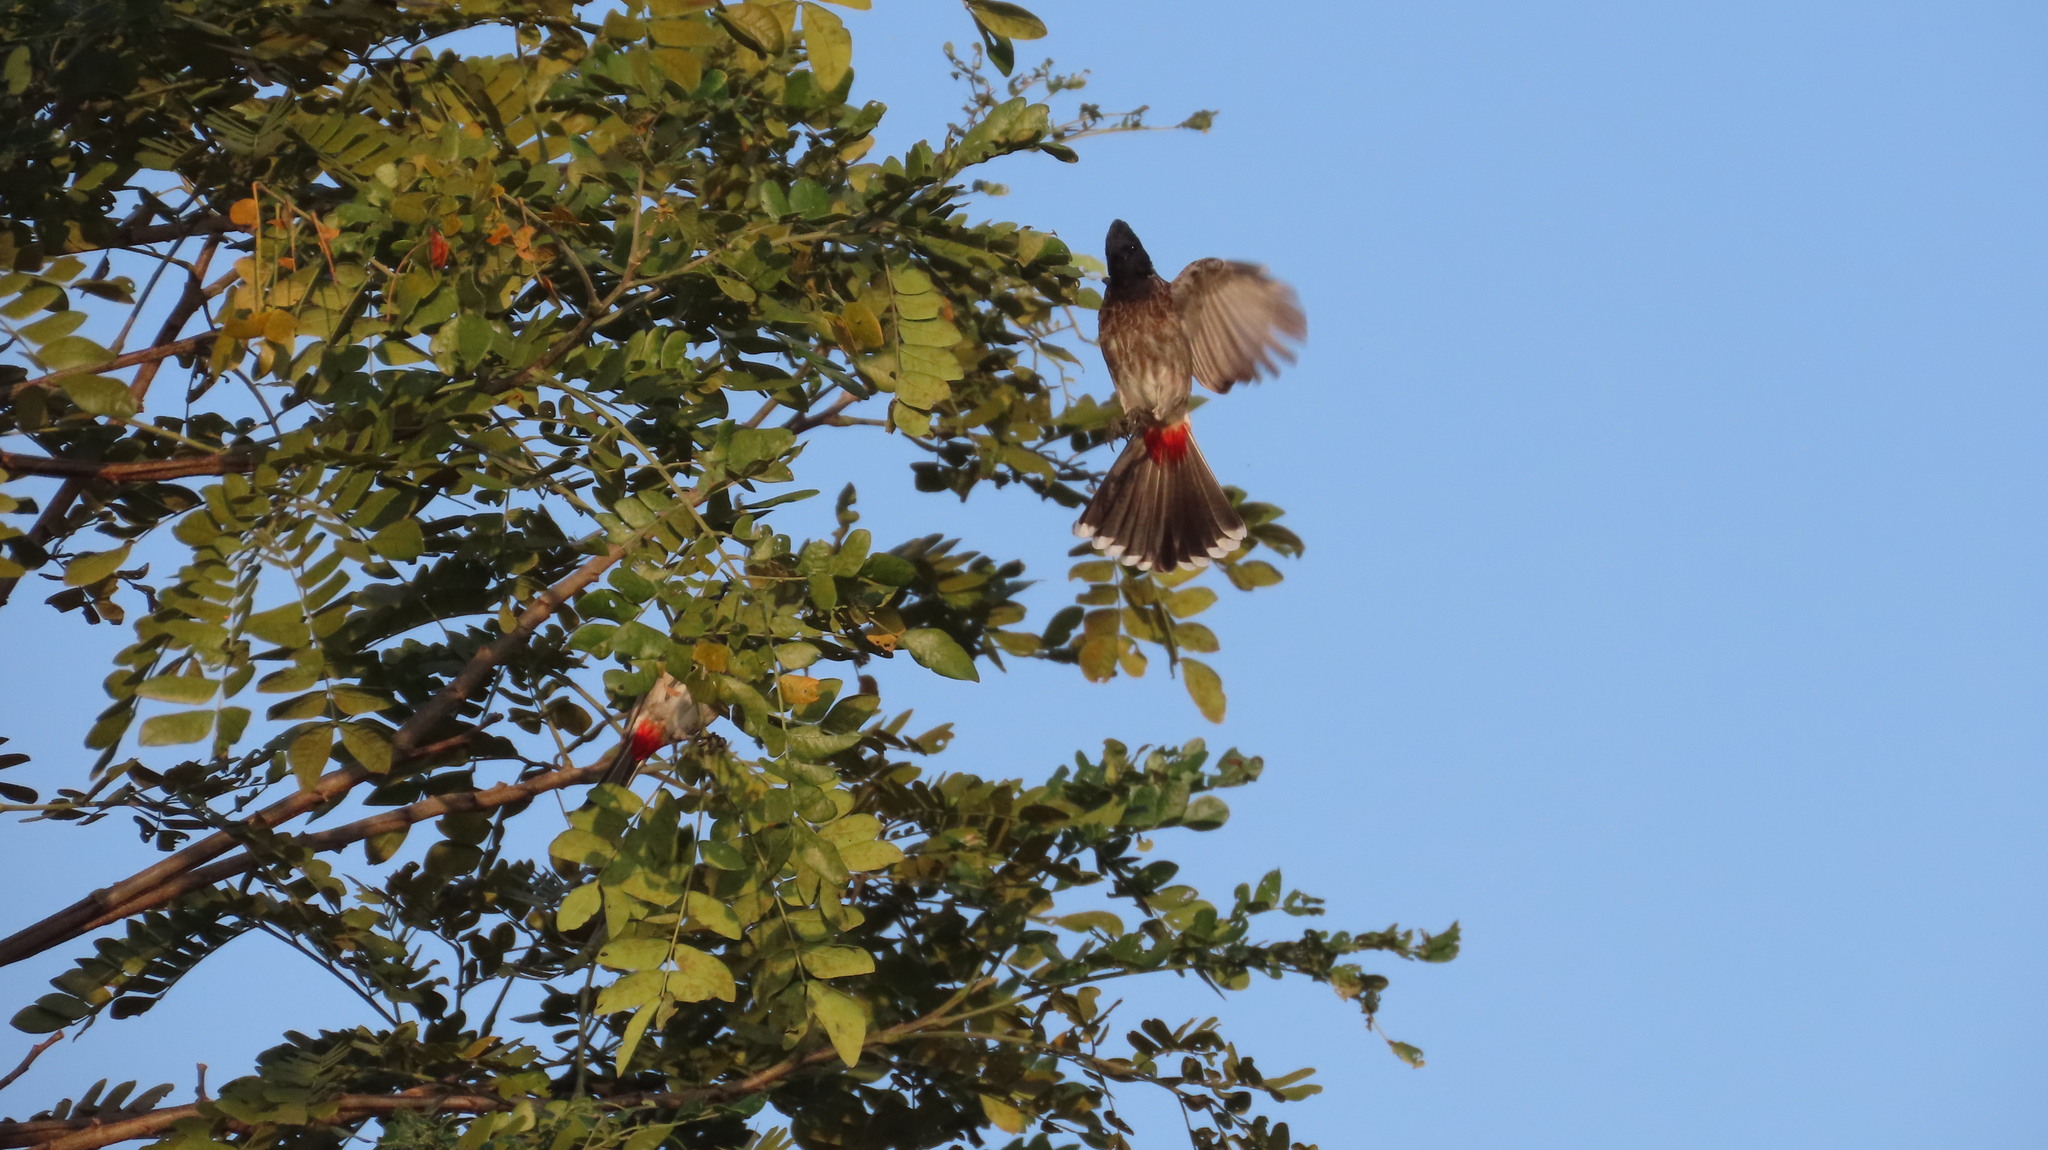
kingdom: Animalia
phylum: Chordata
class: Aves
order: Passeriformes
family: Pycnonotidae
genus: Pycnonotus
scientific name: Pycnonotus cafer
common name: Red-vented bulbul
